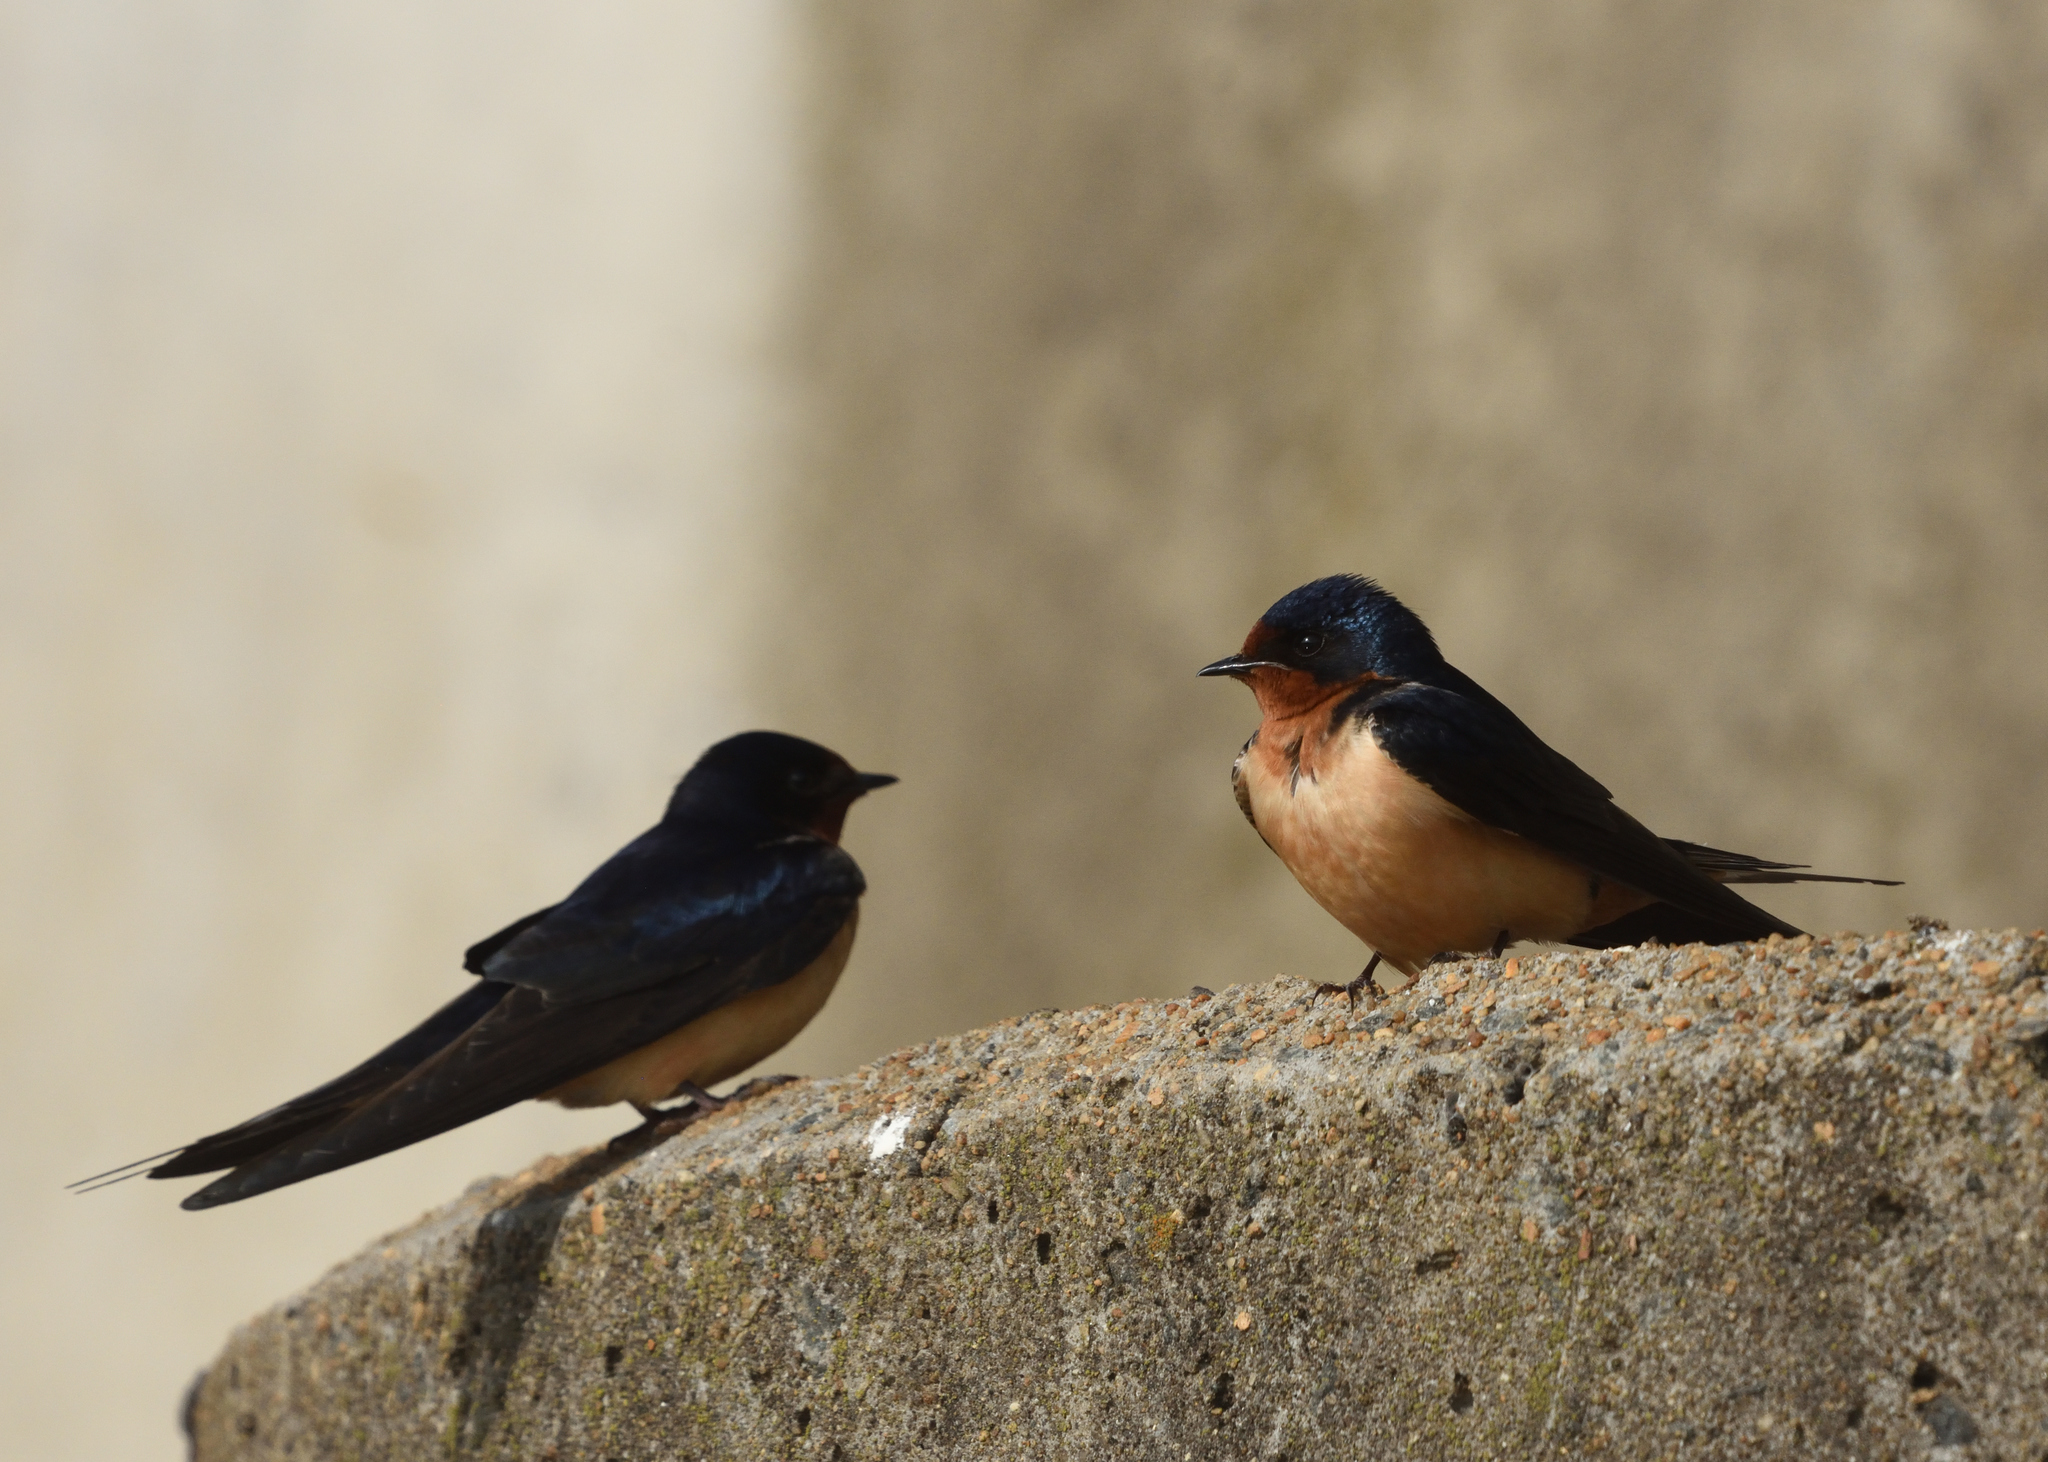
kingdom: Animalia
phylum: Chordata
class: Aves
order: Passeriformes
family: Hirundinidae
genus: Hirundo
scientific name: Hirundo rustica
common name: Barn swallow
